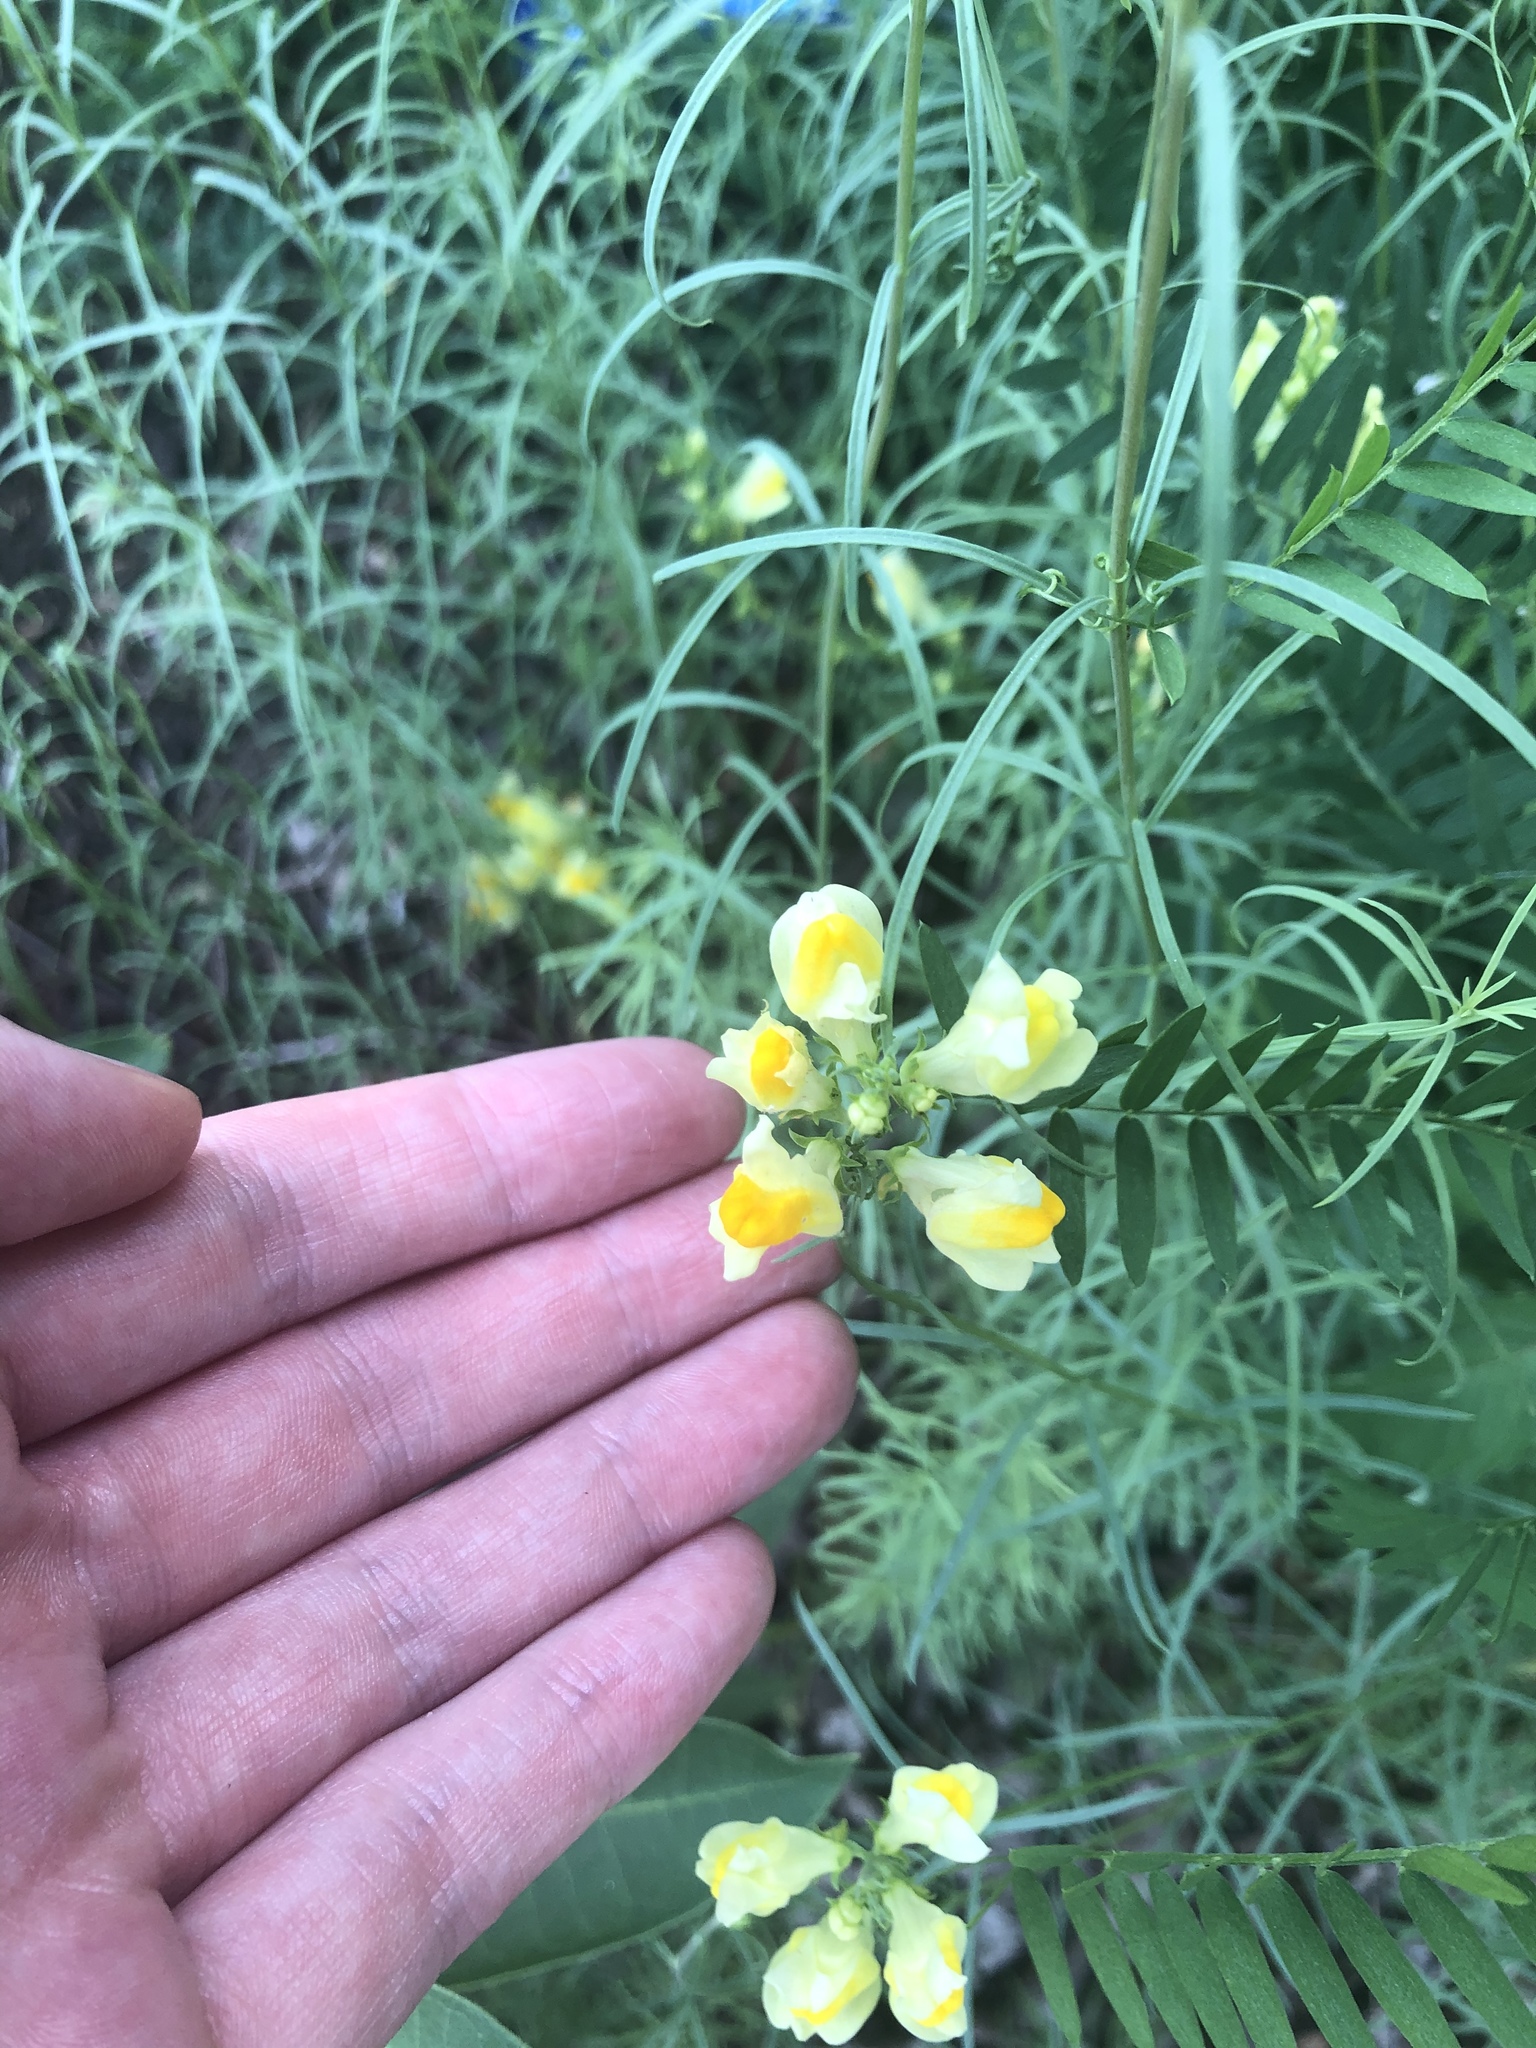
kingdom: Plantae
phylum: Tracheophyta
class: Magnoliopsida
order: Lamiales
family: Plantaginaceae
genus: Linaria
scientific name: Linaria vulgaris
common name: Butter and eggs
